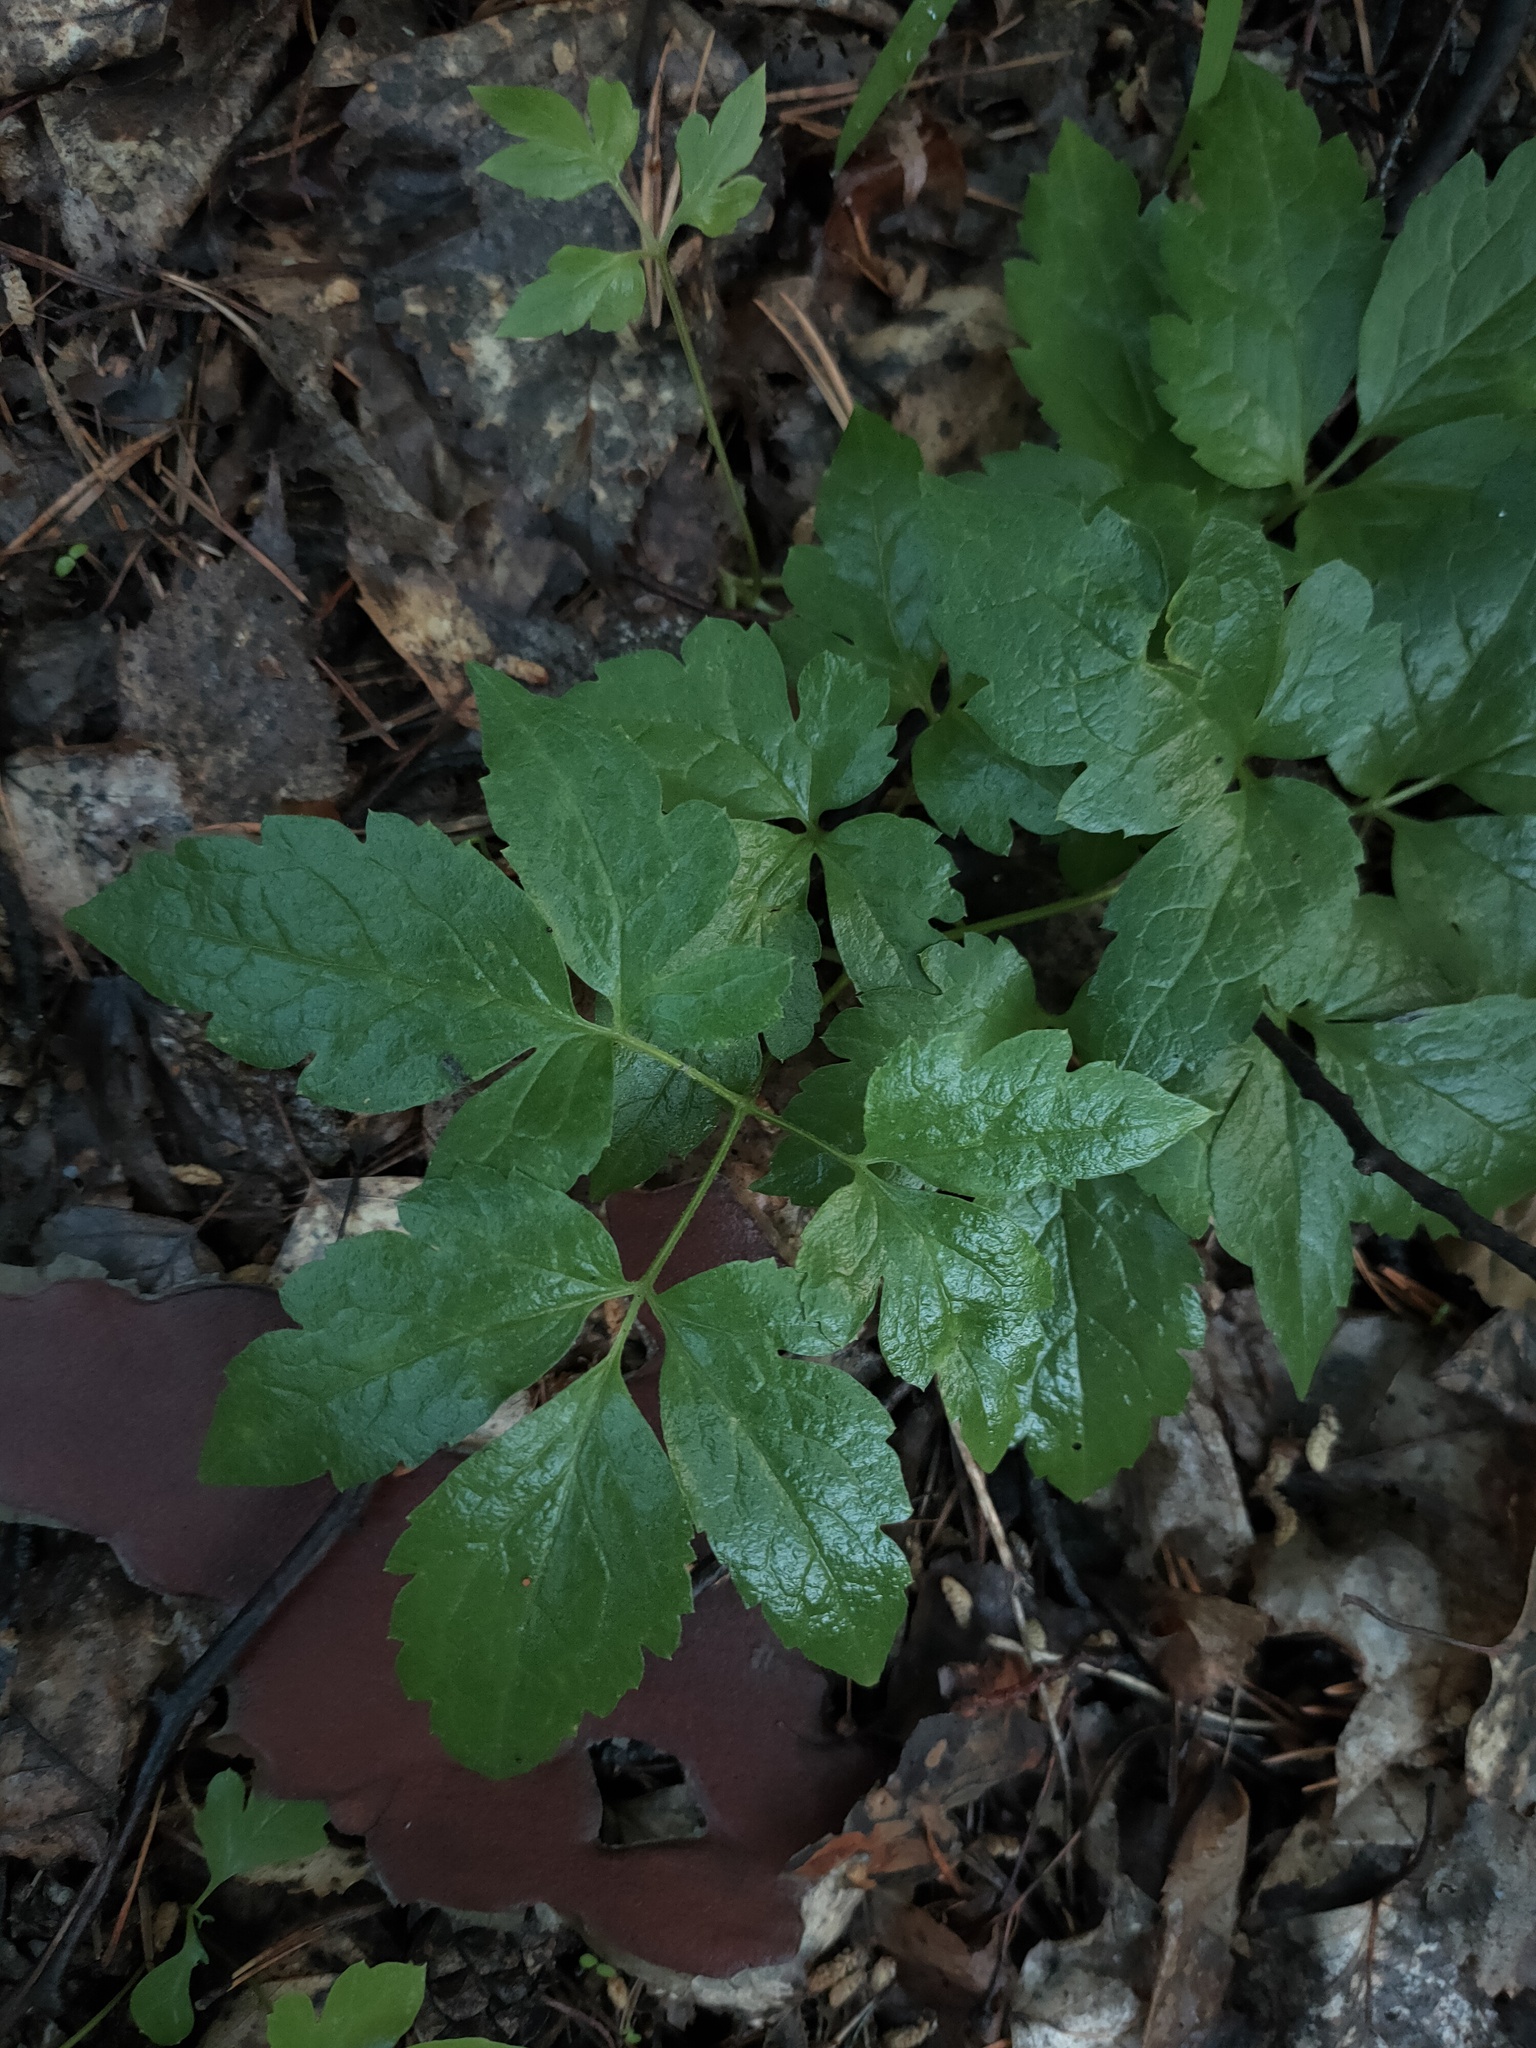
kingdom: Plantae
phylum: Tracheophyta
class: Magnoliopsida
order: Ranunculales
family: Ranunculaceae
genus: Clematis
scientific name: Clematis sibirica
